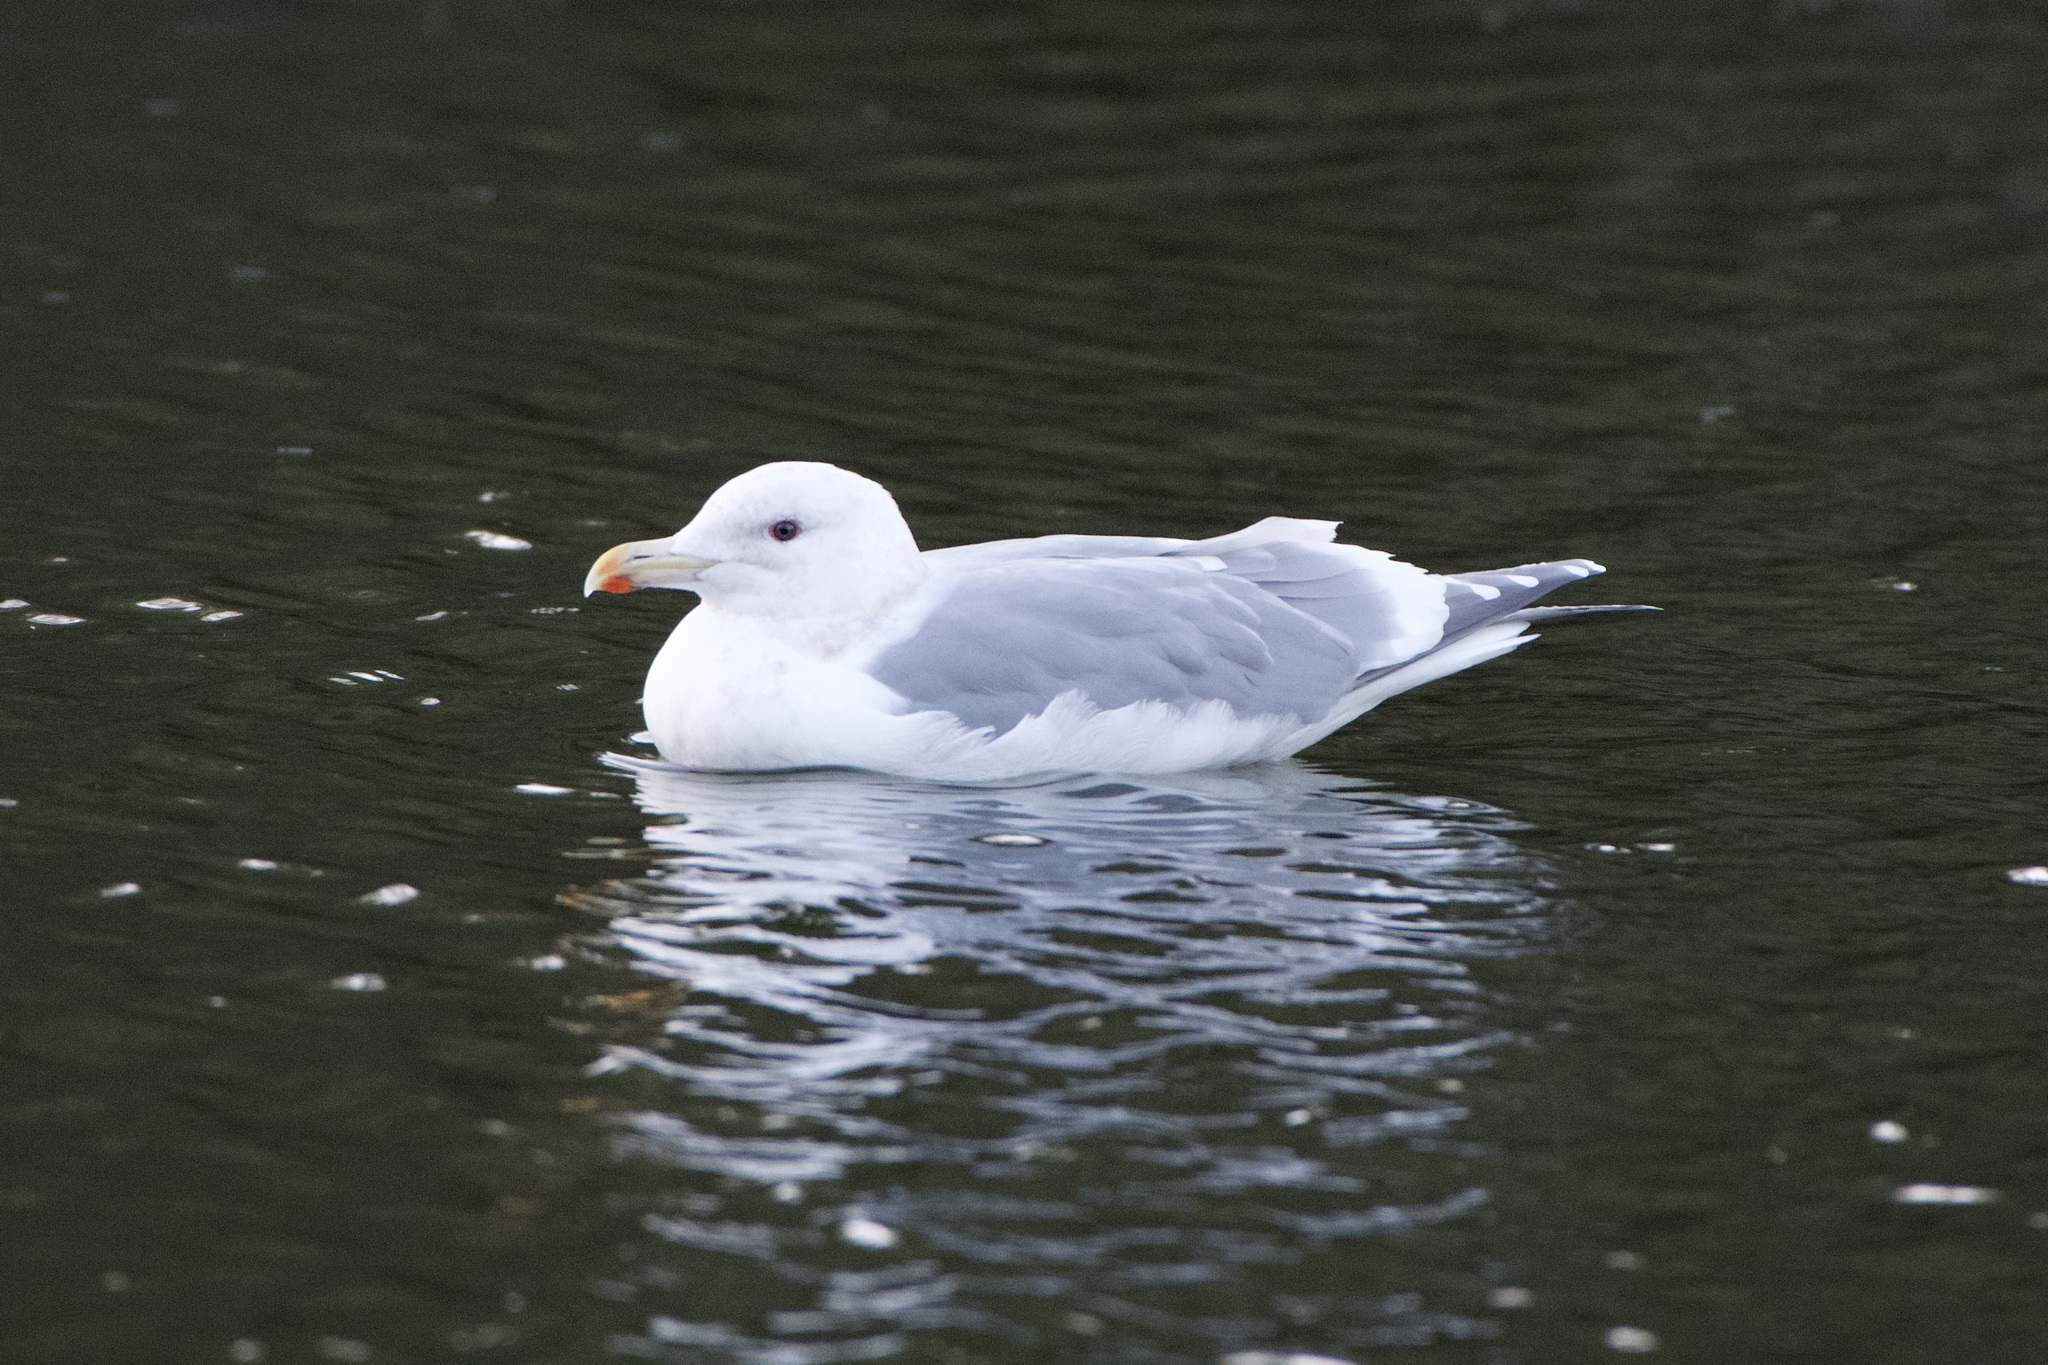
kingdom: Animalia
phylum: Chordata
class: Aves
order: Charadriiformes
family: Laridae
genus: Larus
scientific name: Larus
